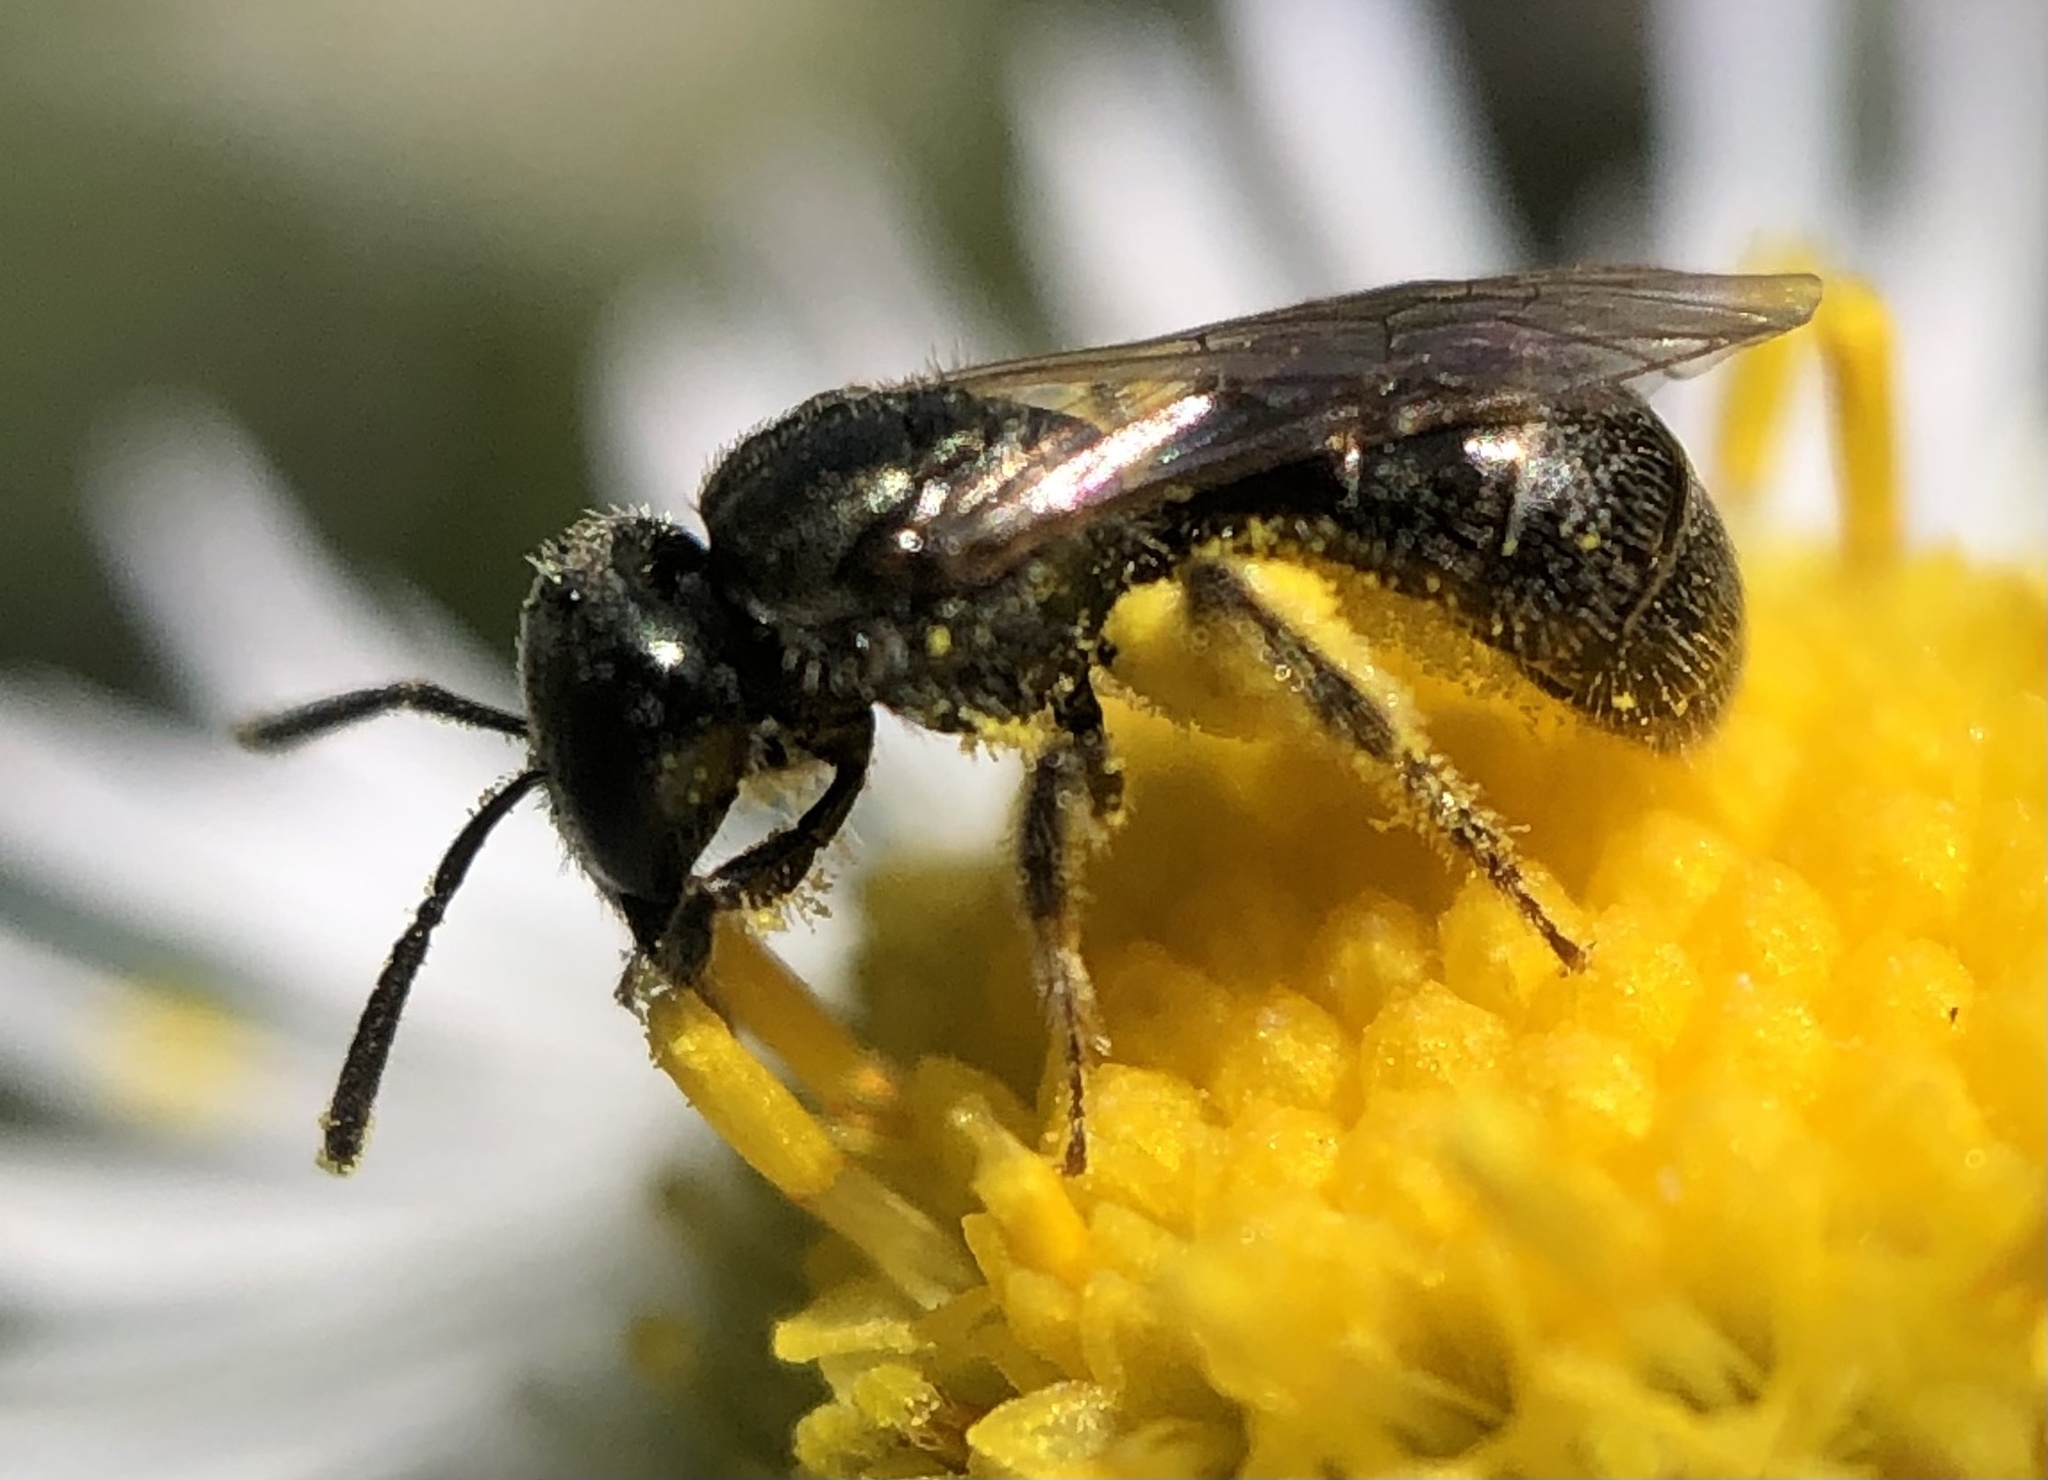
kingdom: Animalia
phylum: Arthropoda
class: Insecta
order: Hymenoptera
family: Halictidae
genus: Lasioglossum
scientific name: Lasioglossum imitatum
